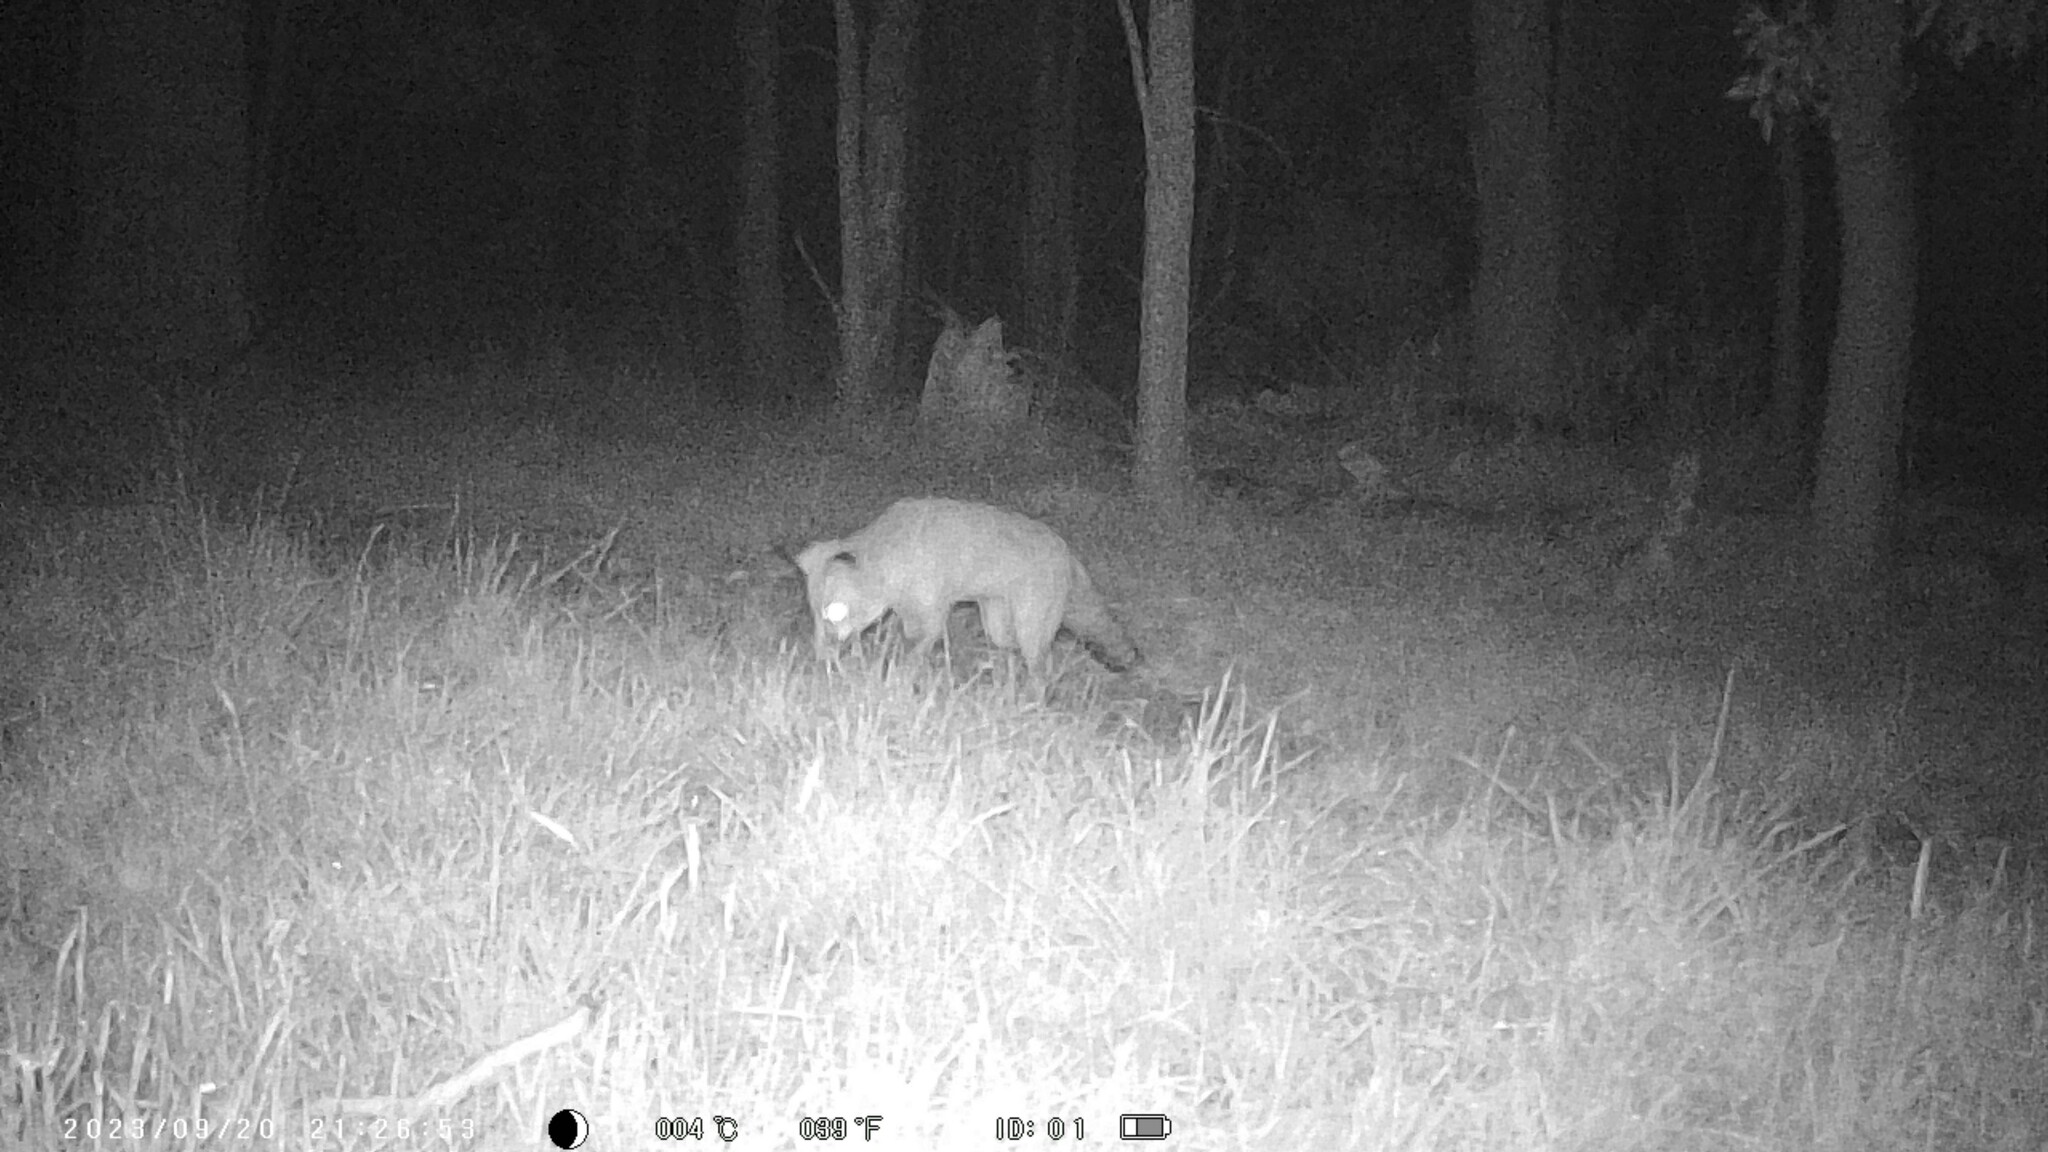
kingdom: Animalia
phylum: Chordata
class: Mammalia
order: Carnivora
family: Canidae
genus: Vulpes
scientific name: Vulpes vulpes
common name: Red fox
